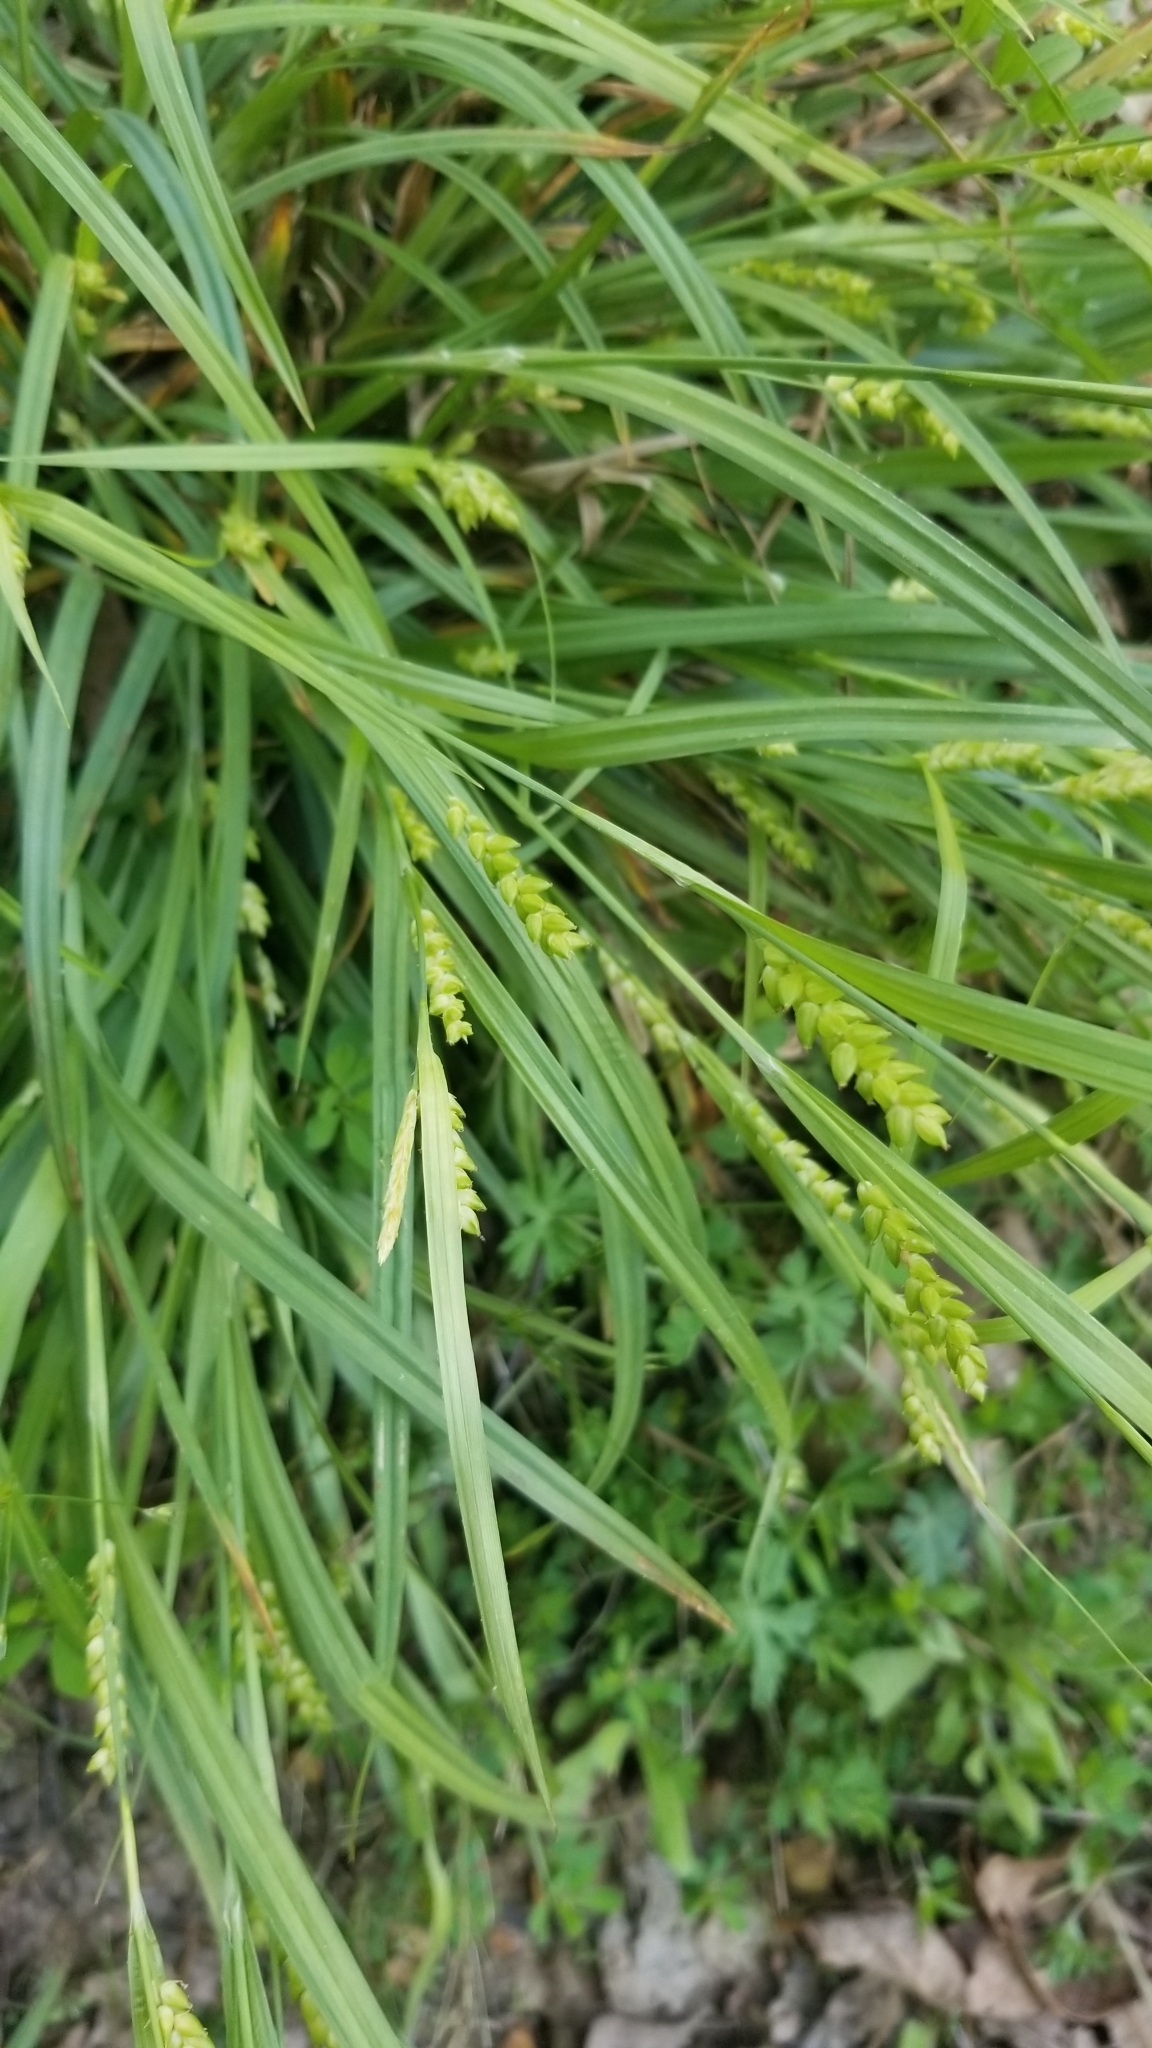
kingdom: Plantae
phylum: Tracheophyta
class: Liliopsida
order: Poales
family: Cyperaceae
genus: Carex
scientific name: Carex flaccosperma
